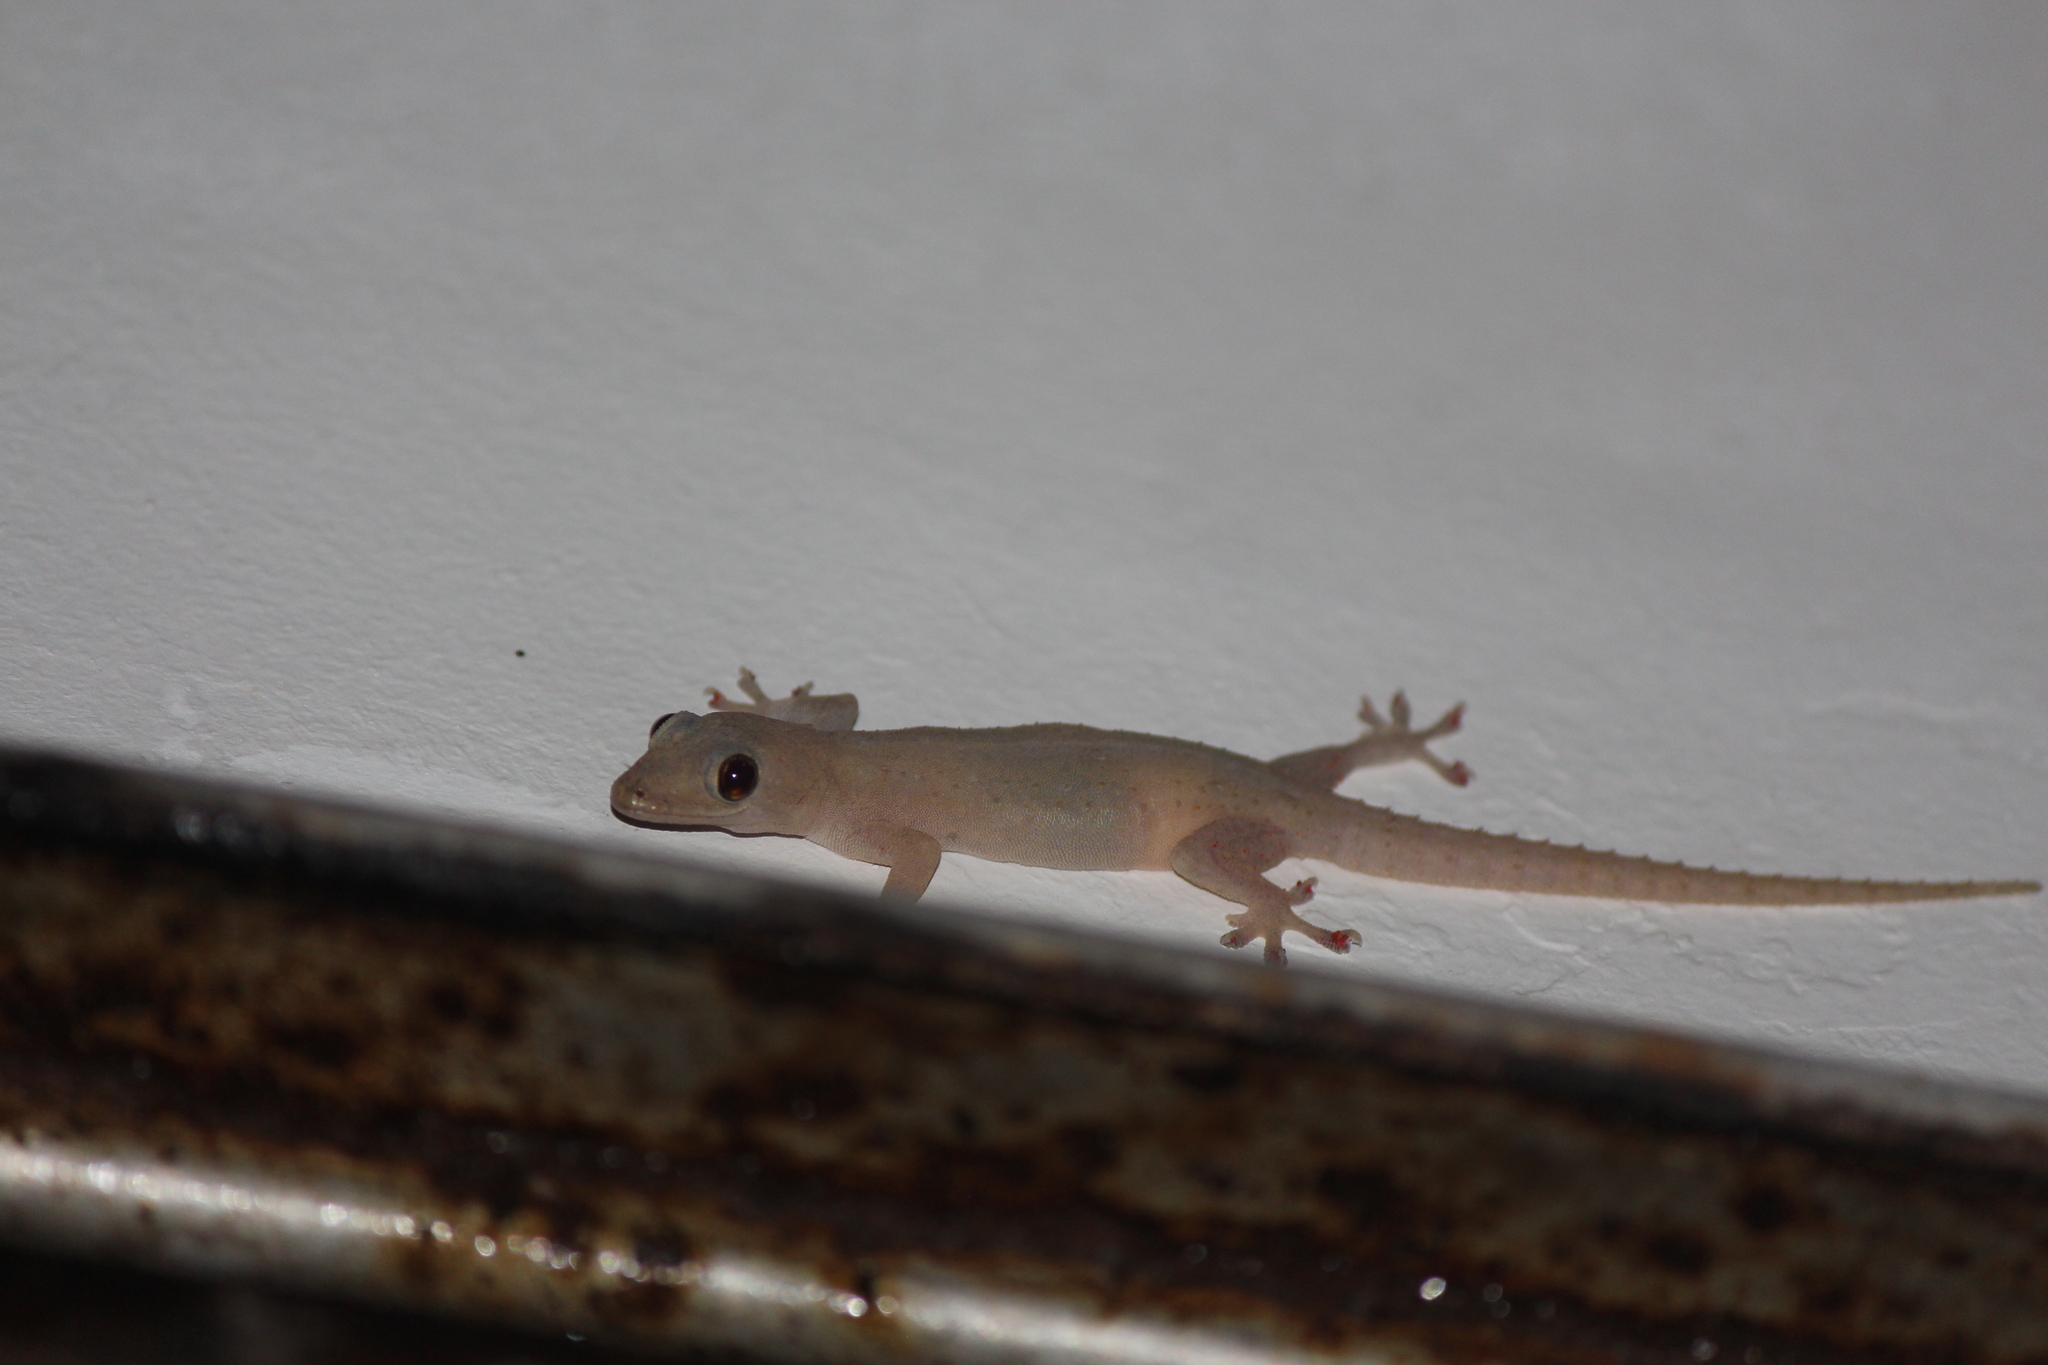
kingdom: Animalia
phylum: Chordata
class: Squamata
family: Gekkonidae
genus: Hemidactylus
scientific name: Hemidactylus frenatus
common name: Common house gecko
